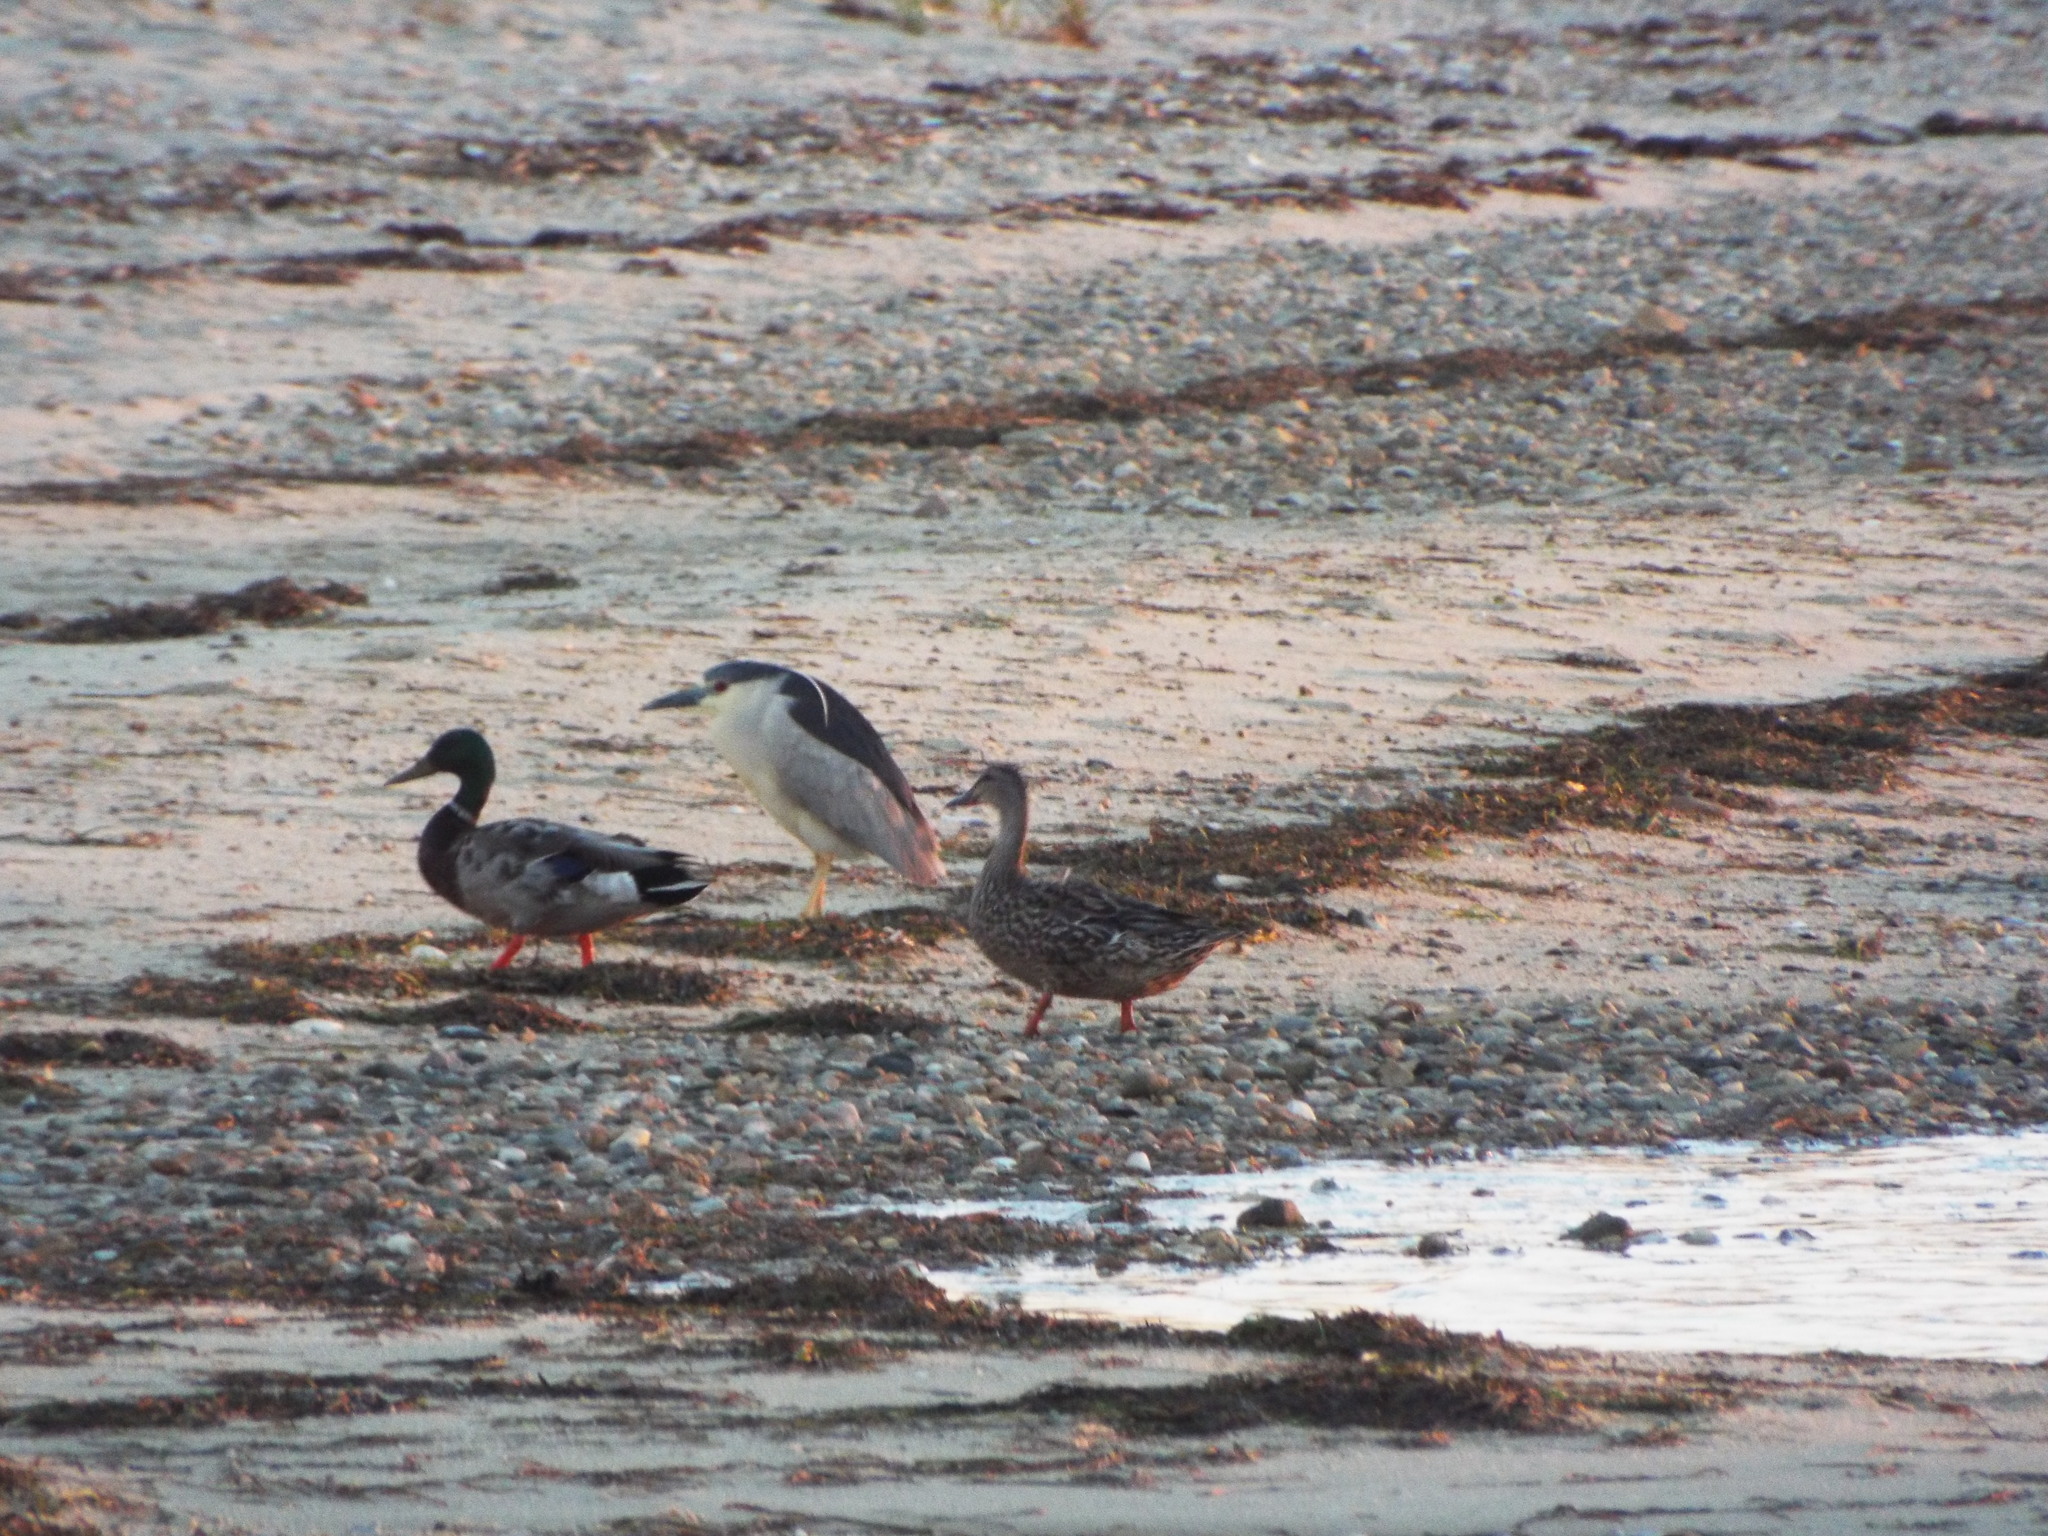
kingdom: Animalia
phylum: Chordata
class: Aves
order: Anseriformes
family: Anatidae
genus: Anas
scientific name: Anas platyrhynchos
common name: Mallard
